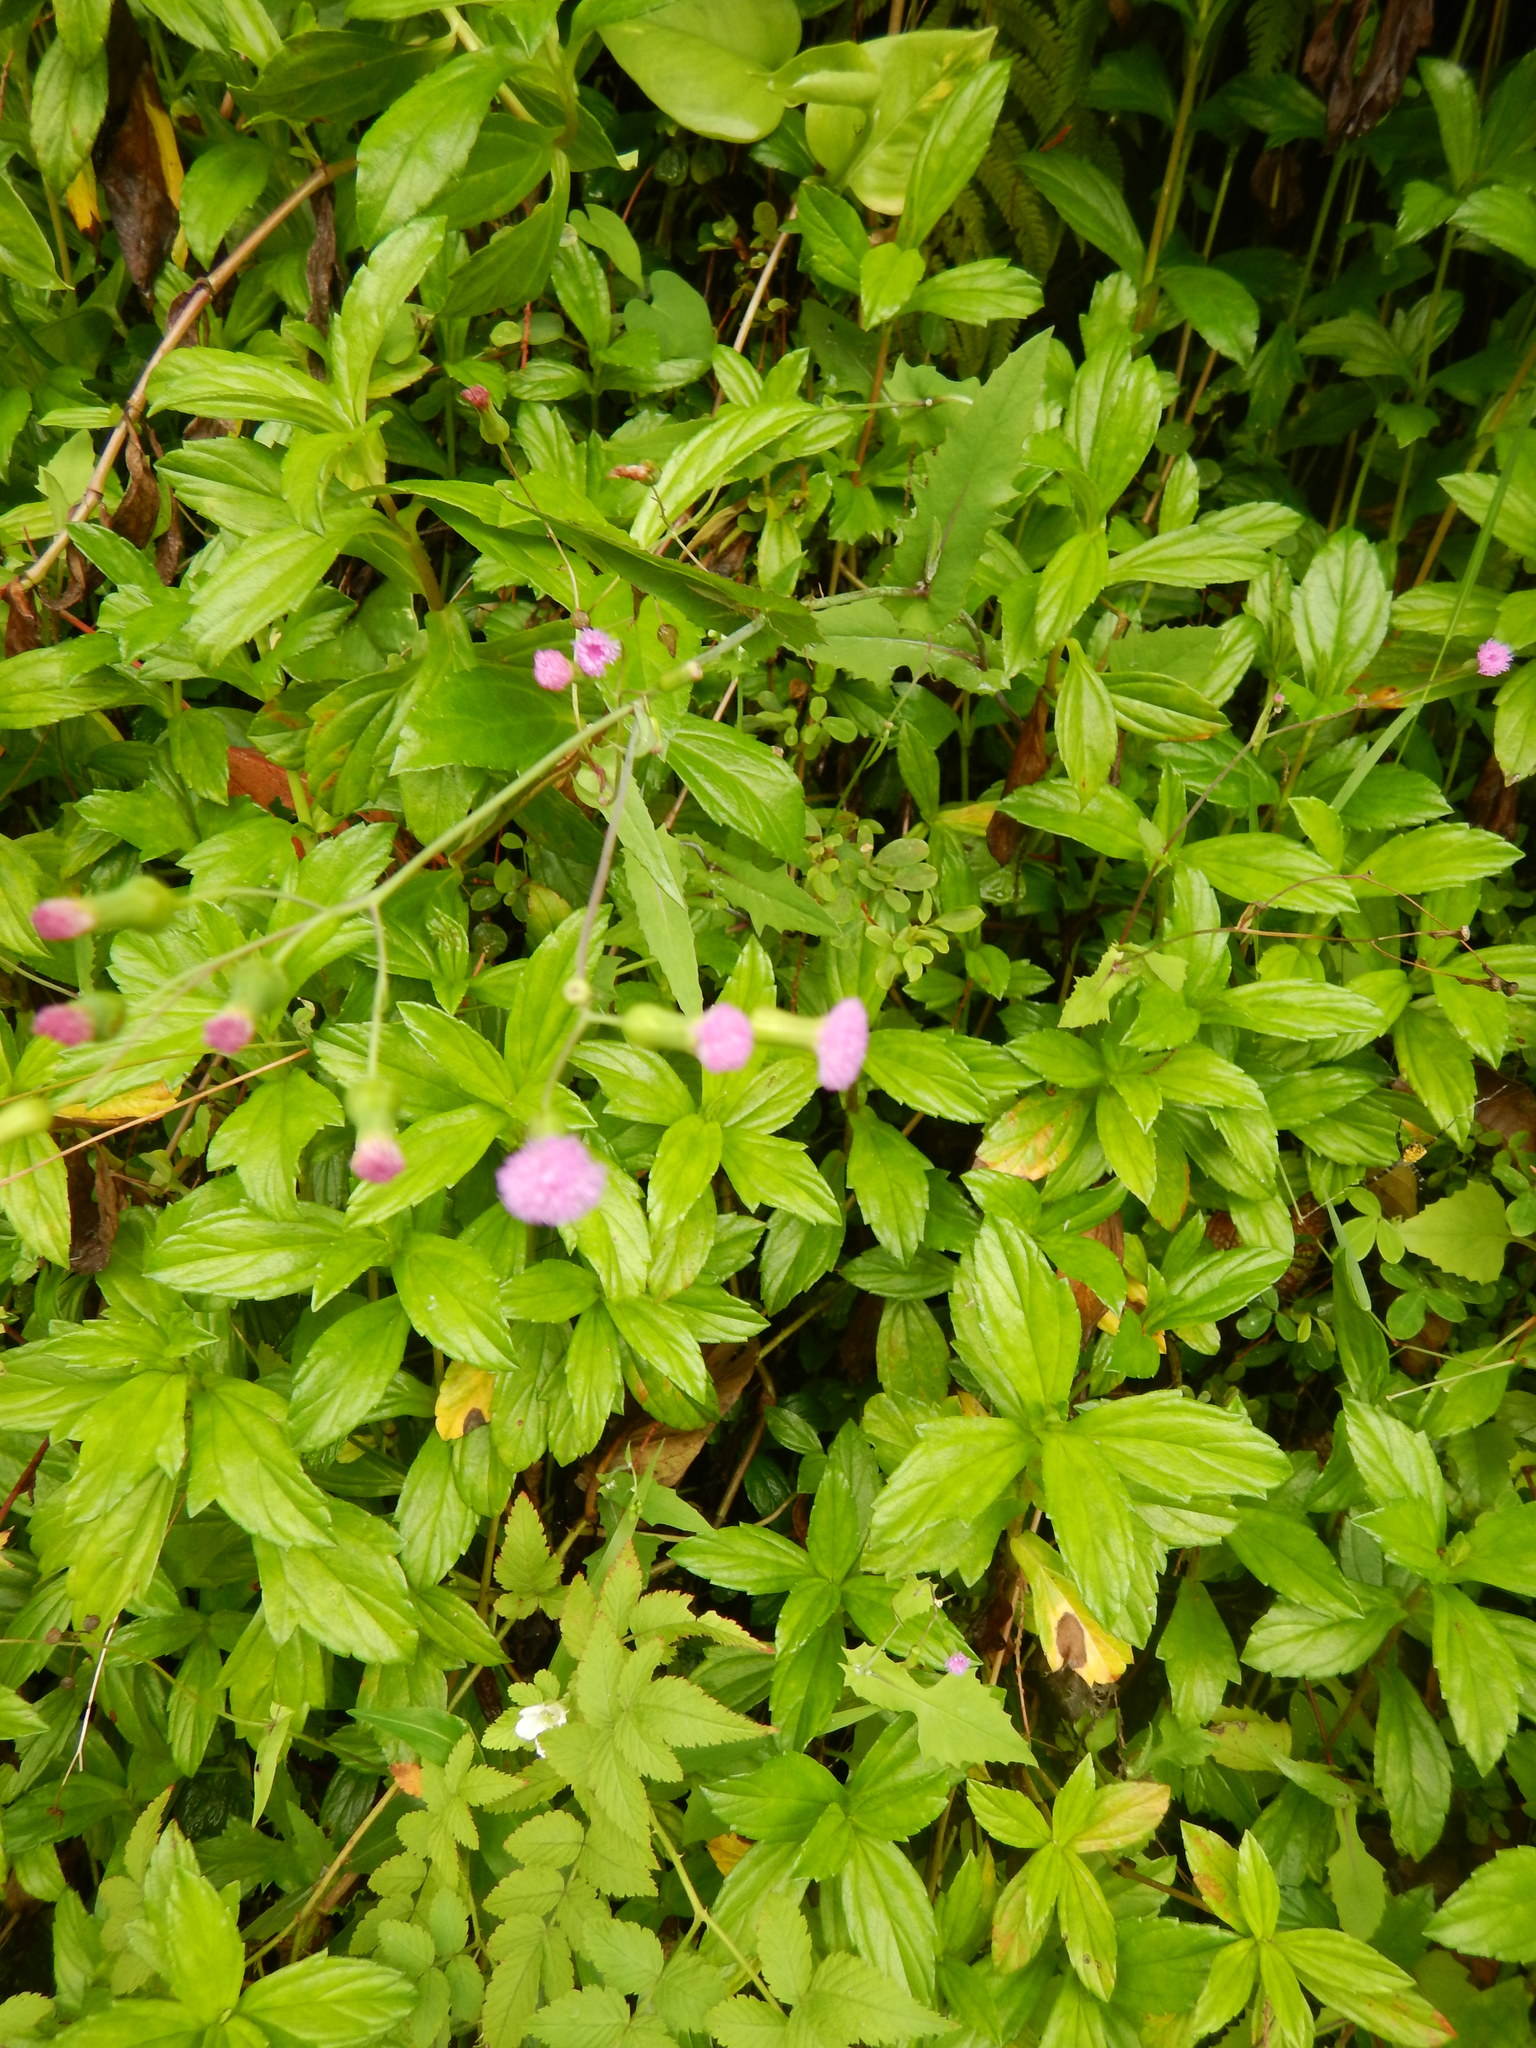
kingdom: Plantae
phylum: Tracheophyta
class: Magnoliopsida
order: Asterales
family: Asteraceae
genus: Emilia
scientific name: Emilia sonchifolia
